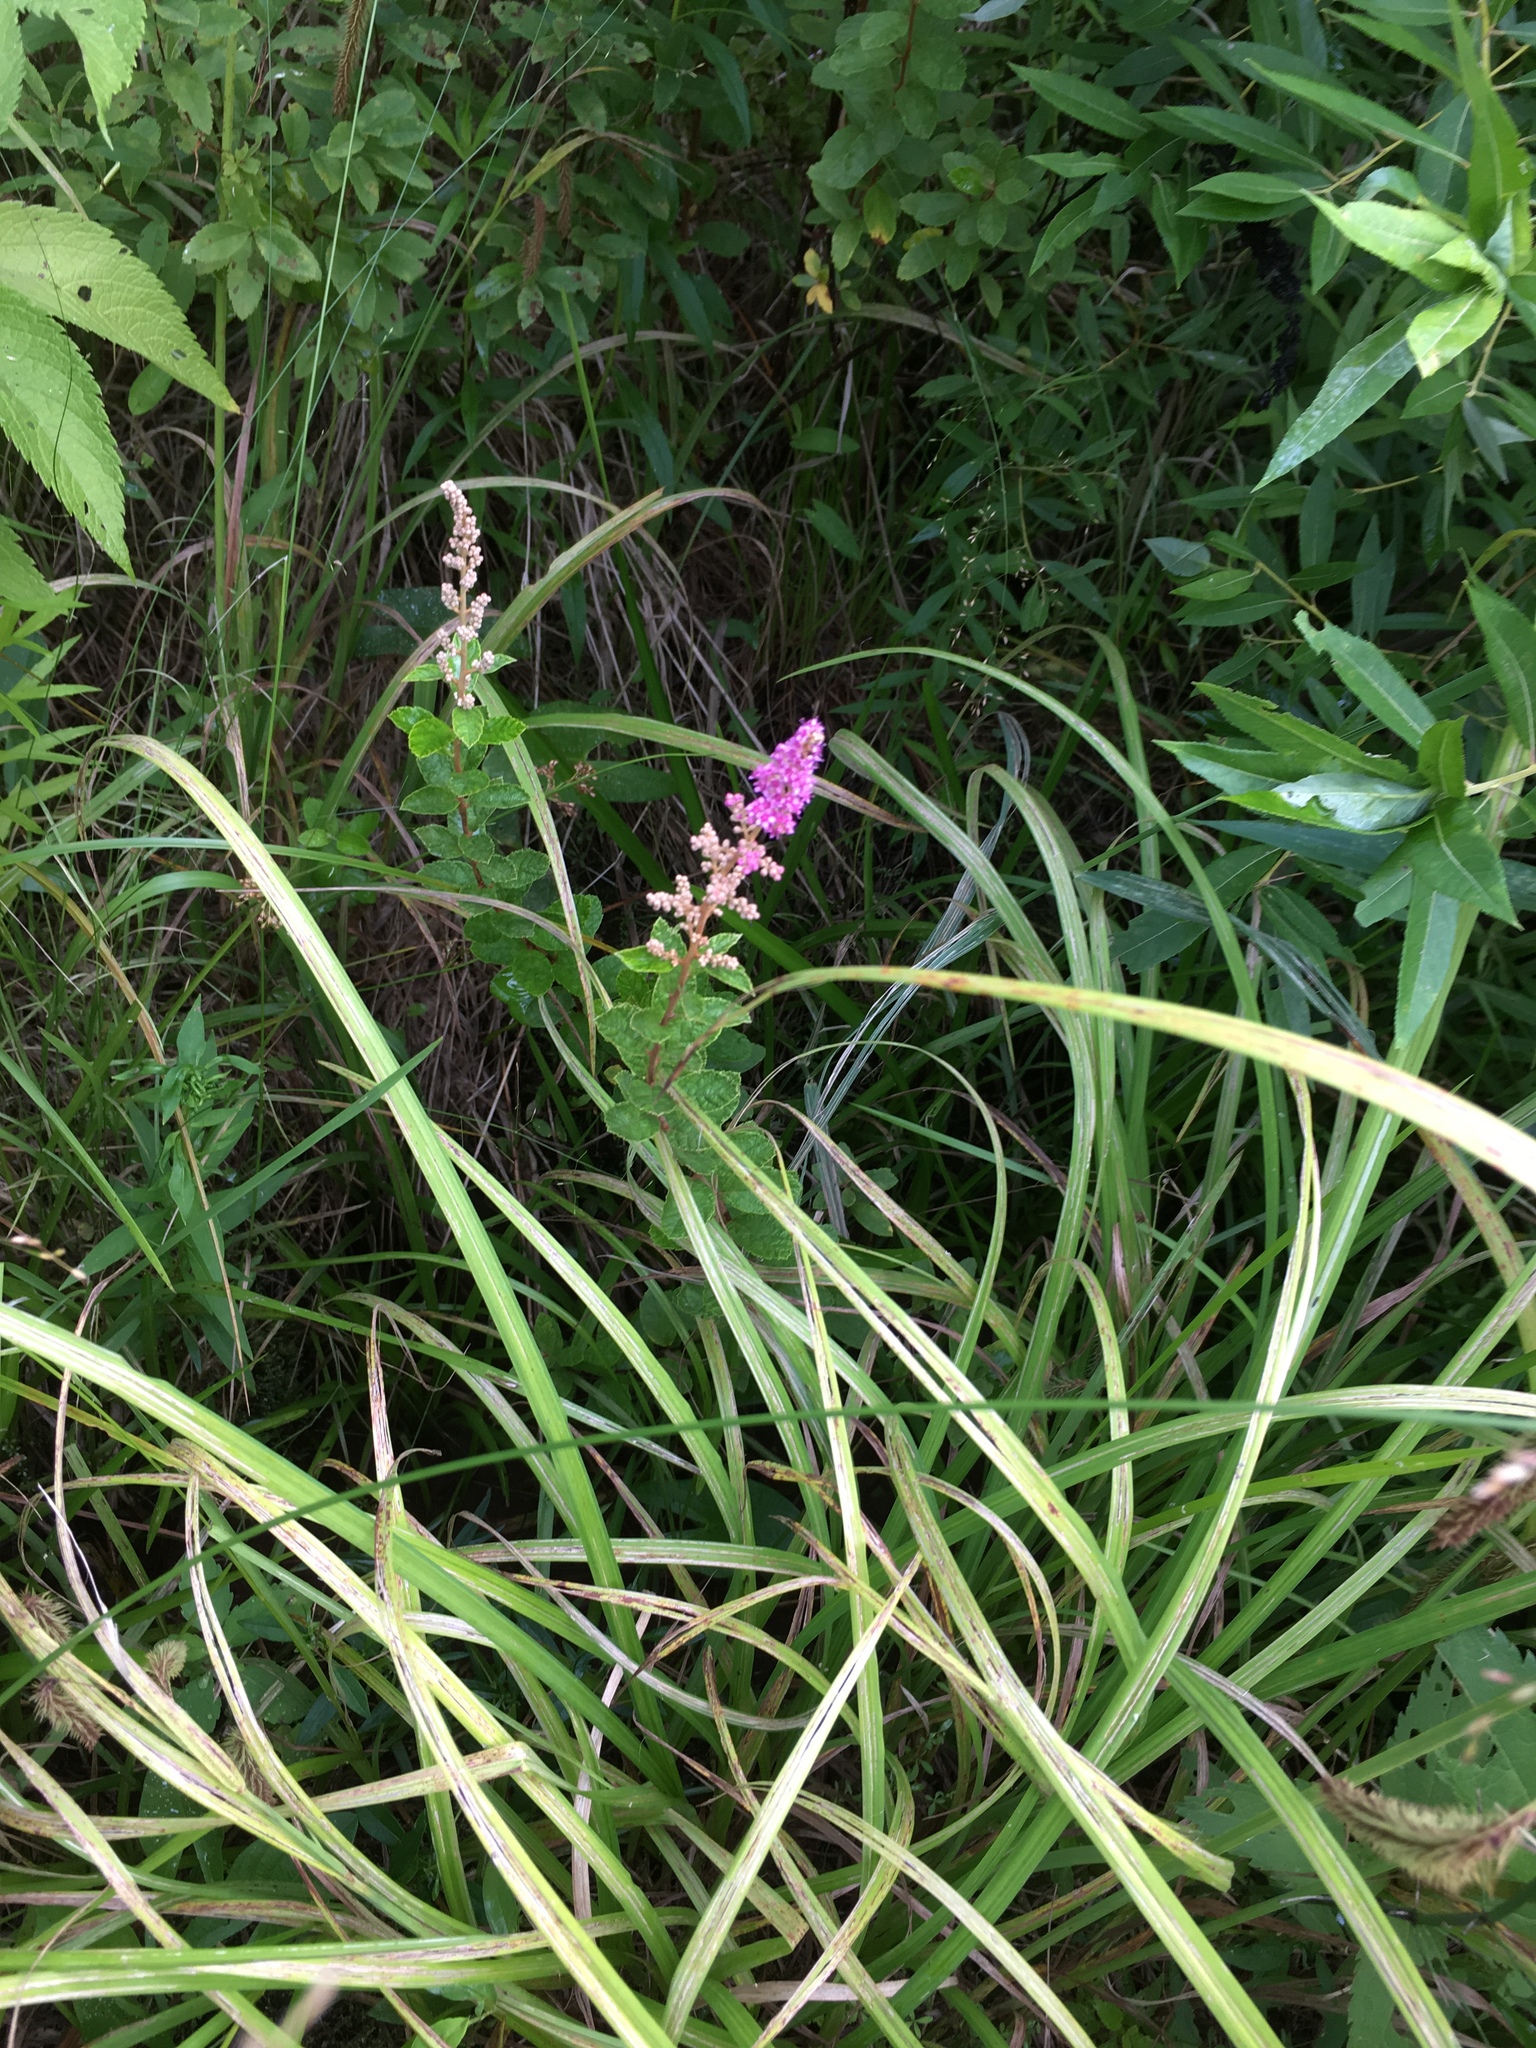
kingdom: Plantae
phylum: Tracheophyta
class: Magnoliopsida
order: Rosales
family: Rosaceae
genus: Spiraea
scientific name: Spiraea tomentosa
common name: Hardhack
